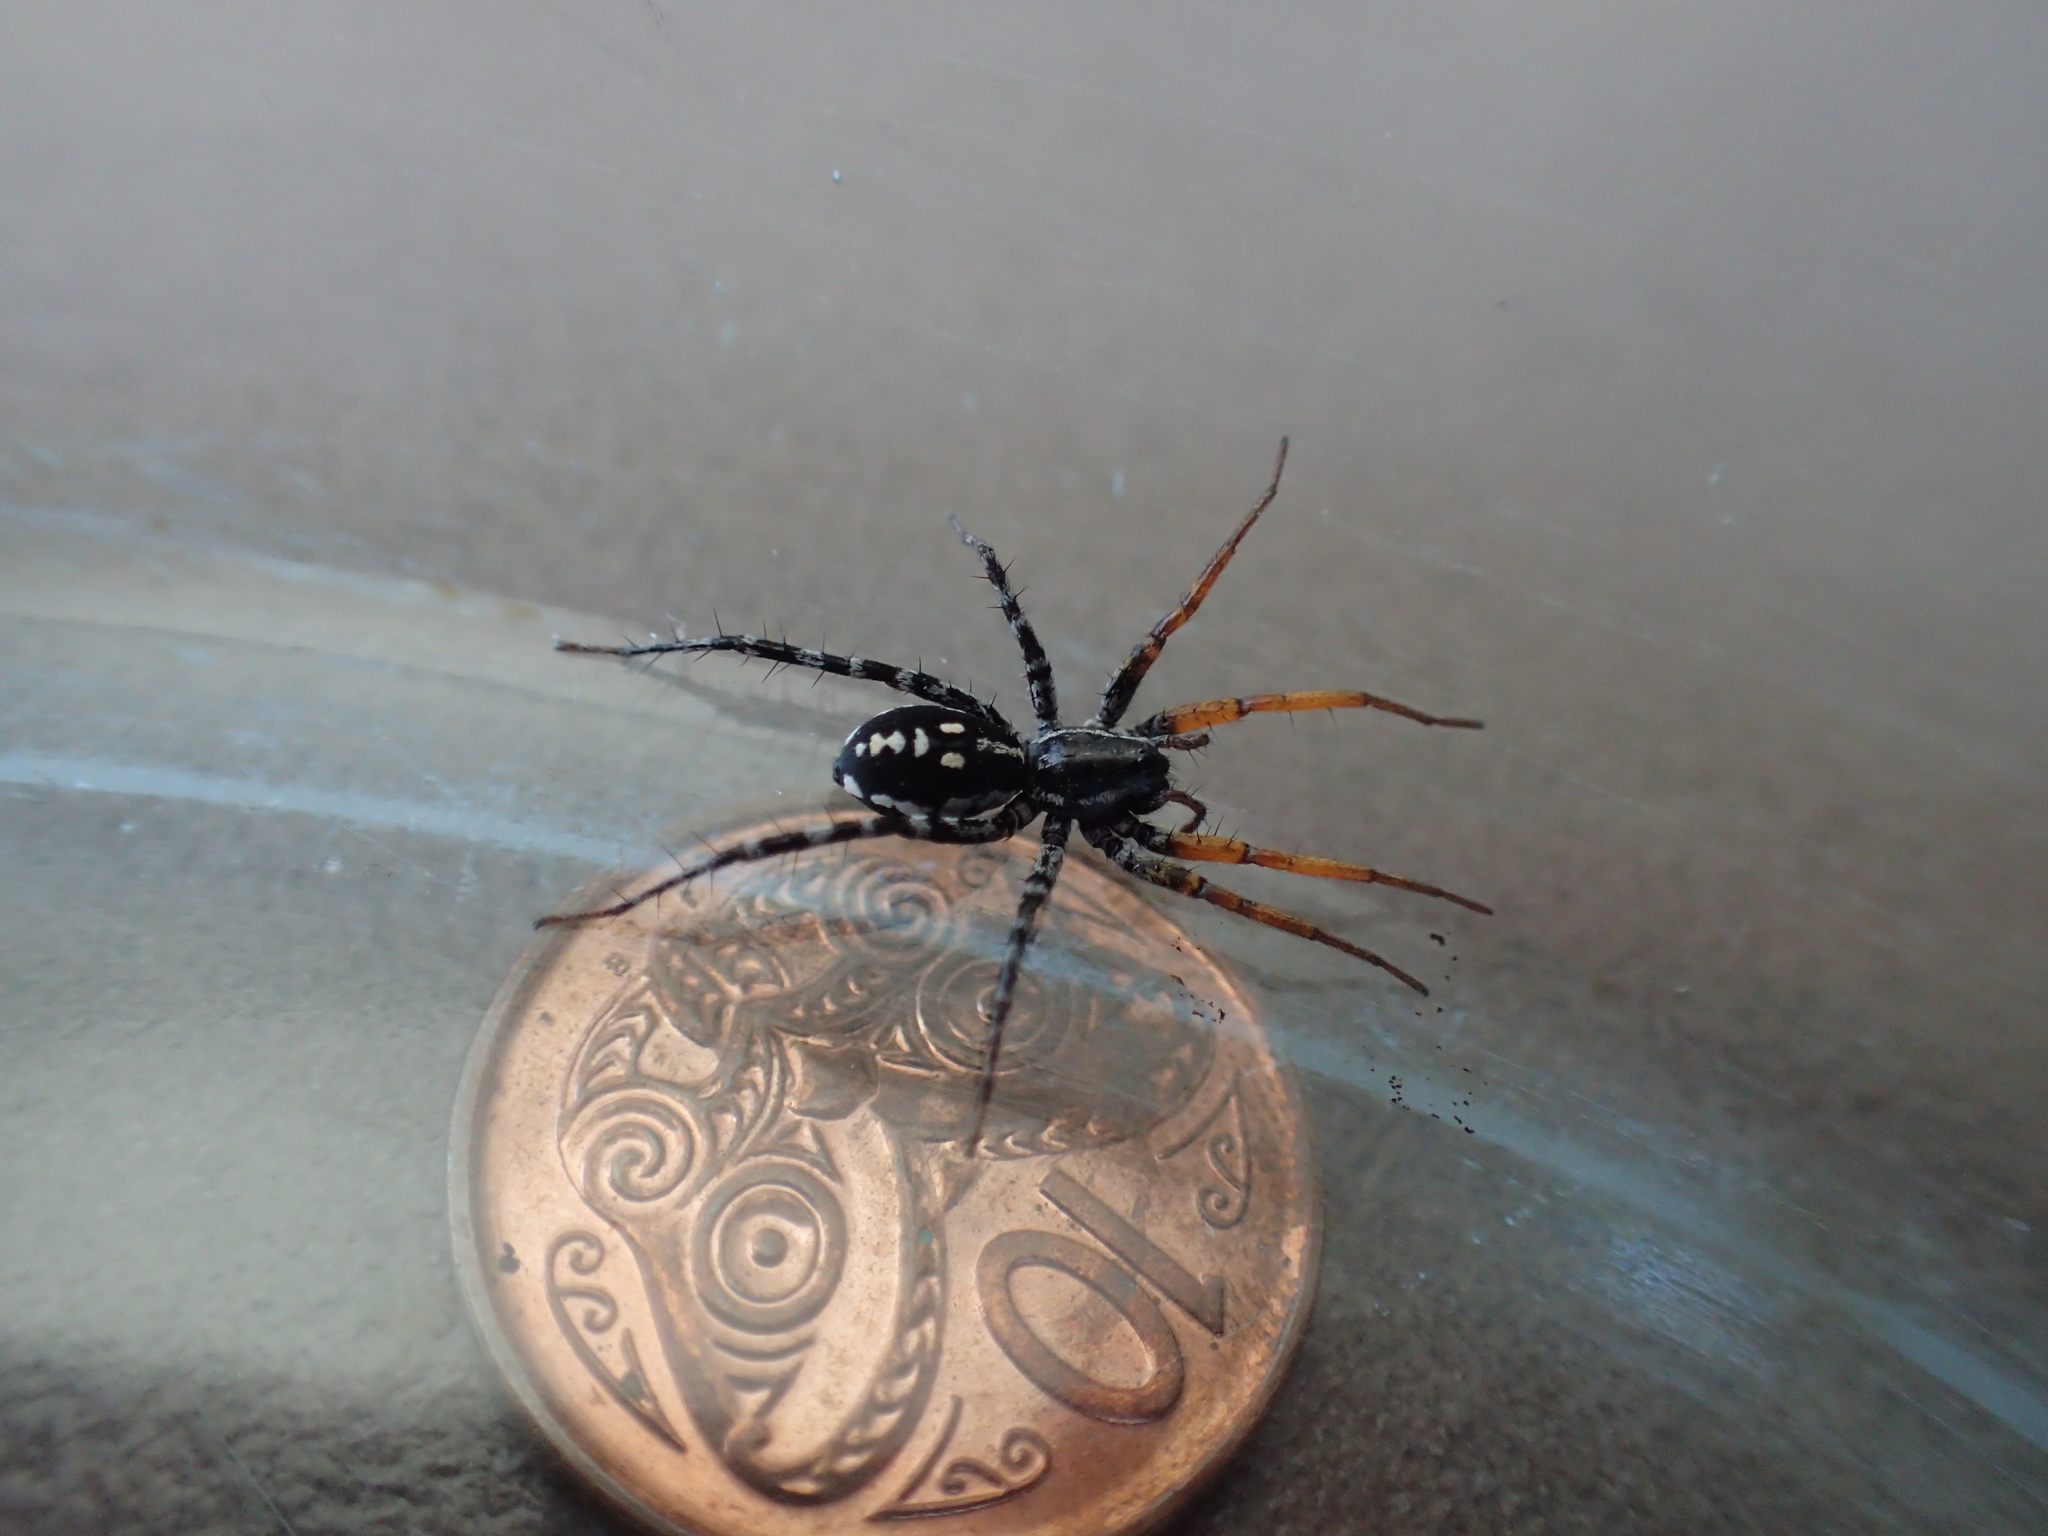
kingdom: Animalia
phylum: Arthropoda
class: Arachnida
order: Araneae
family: Corinnidae
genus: Nyssus
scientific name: Nyssus coloripes
